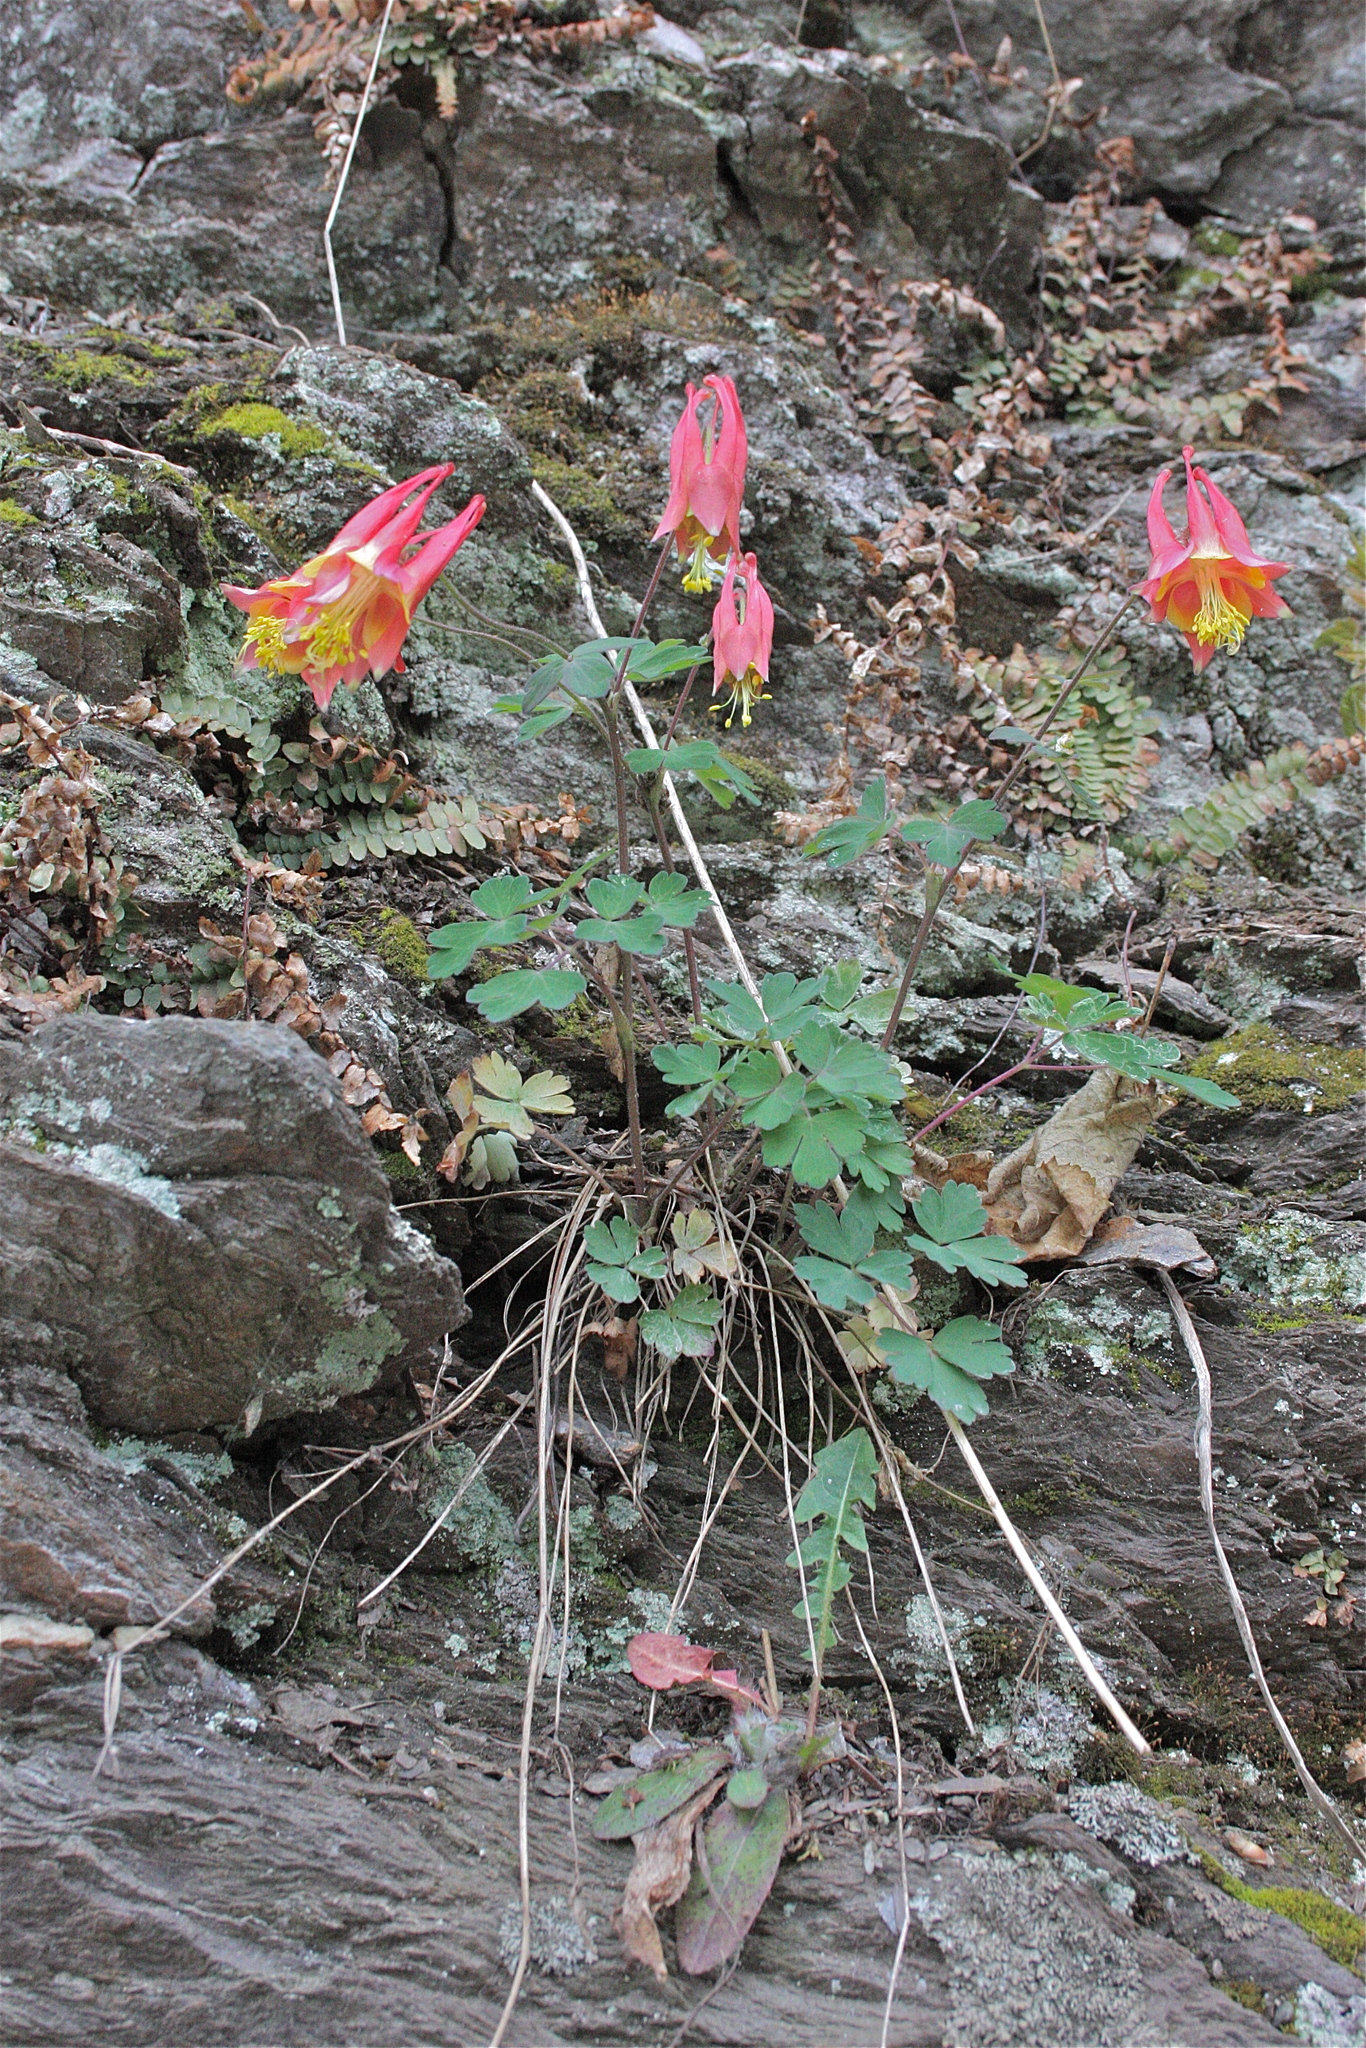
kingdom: Plantae
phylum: Tracheophyta
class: Magnoliopsida
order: Ranunculales
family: Ranunculaceae
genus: Aquilegia
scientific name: Aquilegia canadensis
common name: American columbine
